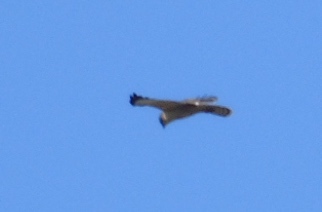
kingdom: Animalia
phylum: Chordata
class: Aves
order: Accipitriformes
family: Accipitridae
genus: Buteo
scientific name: Buteo brachyurus
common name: Short-tailed hawk
